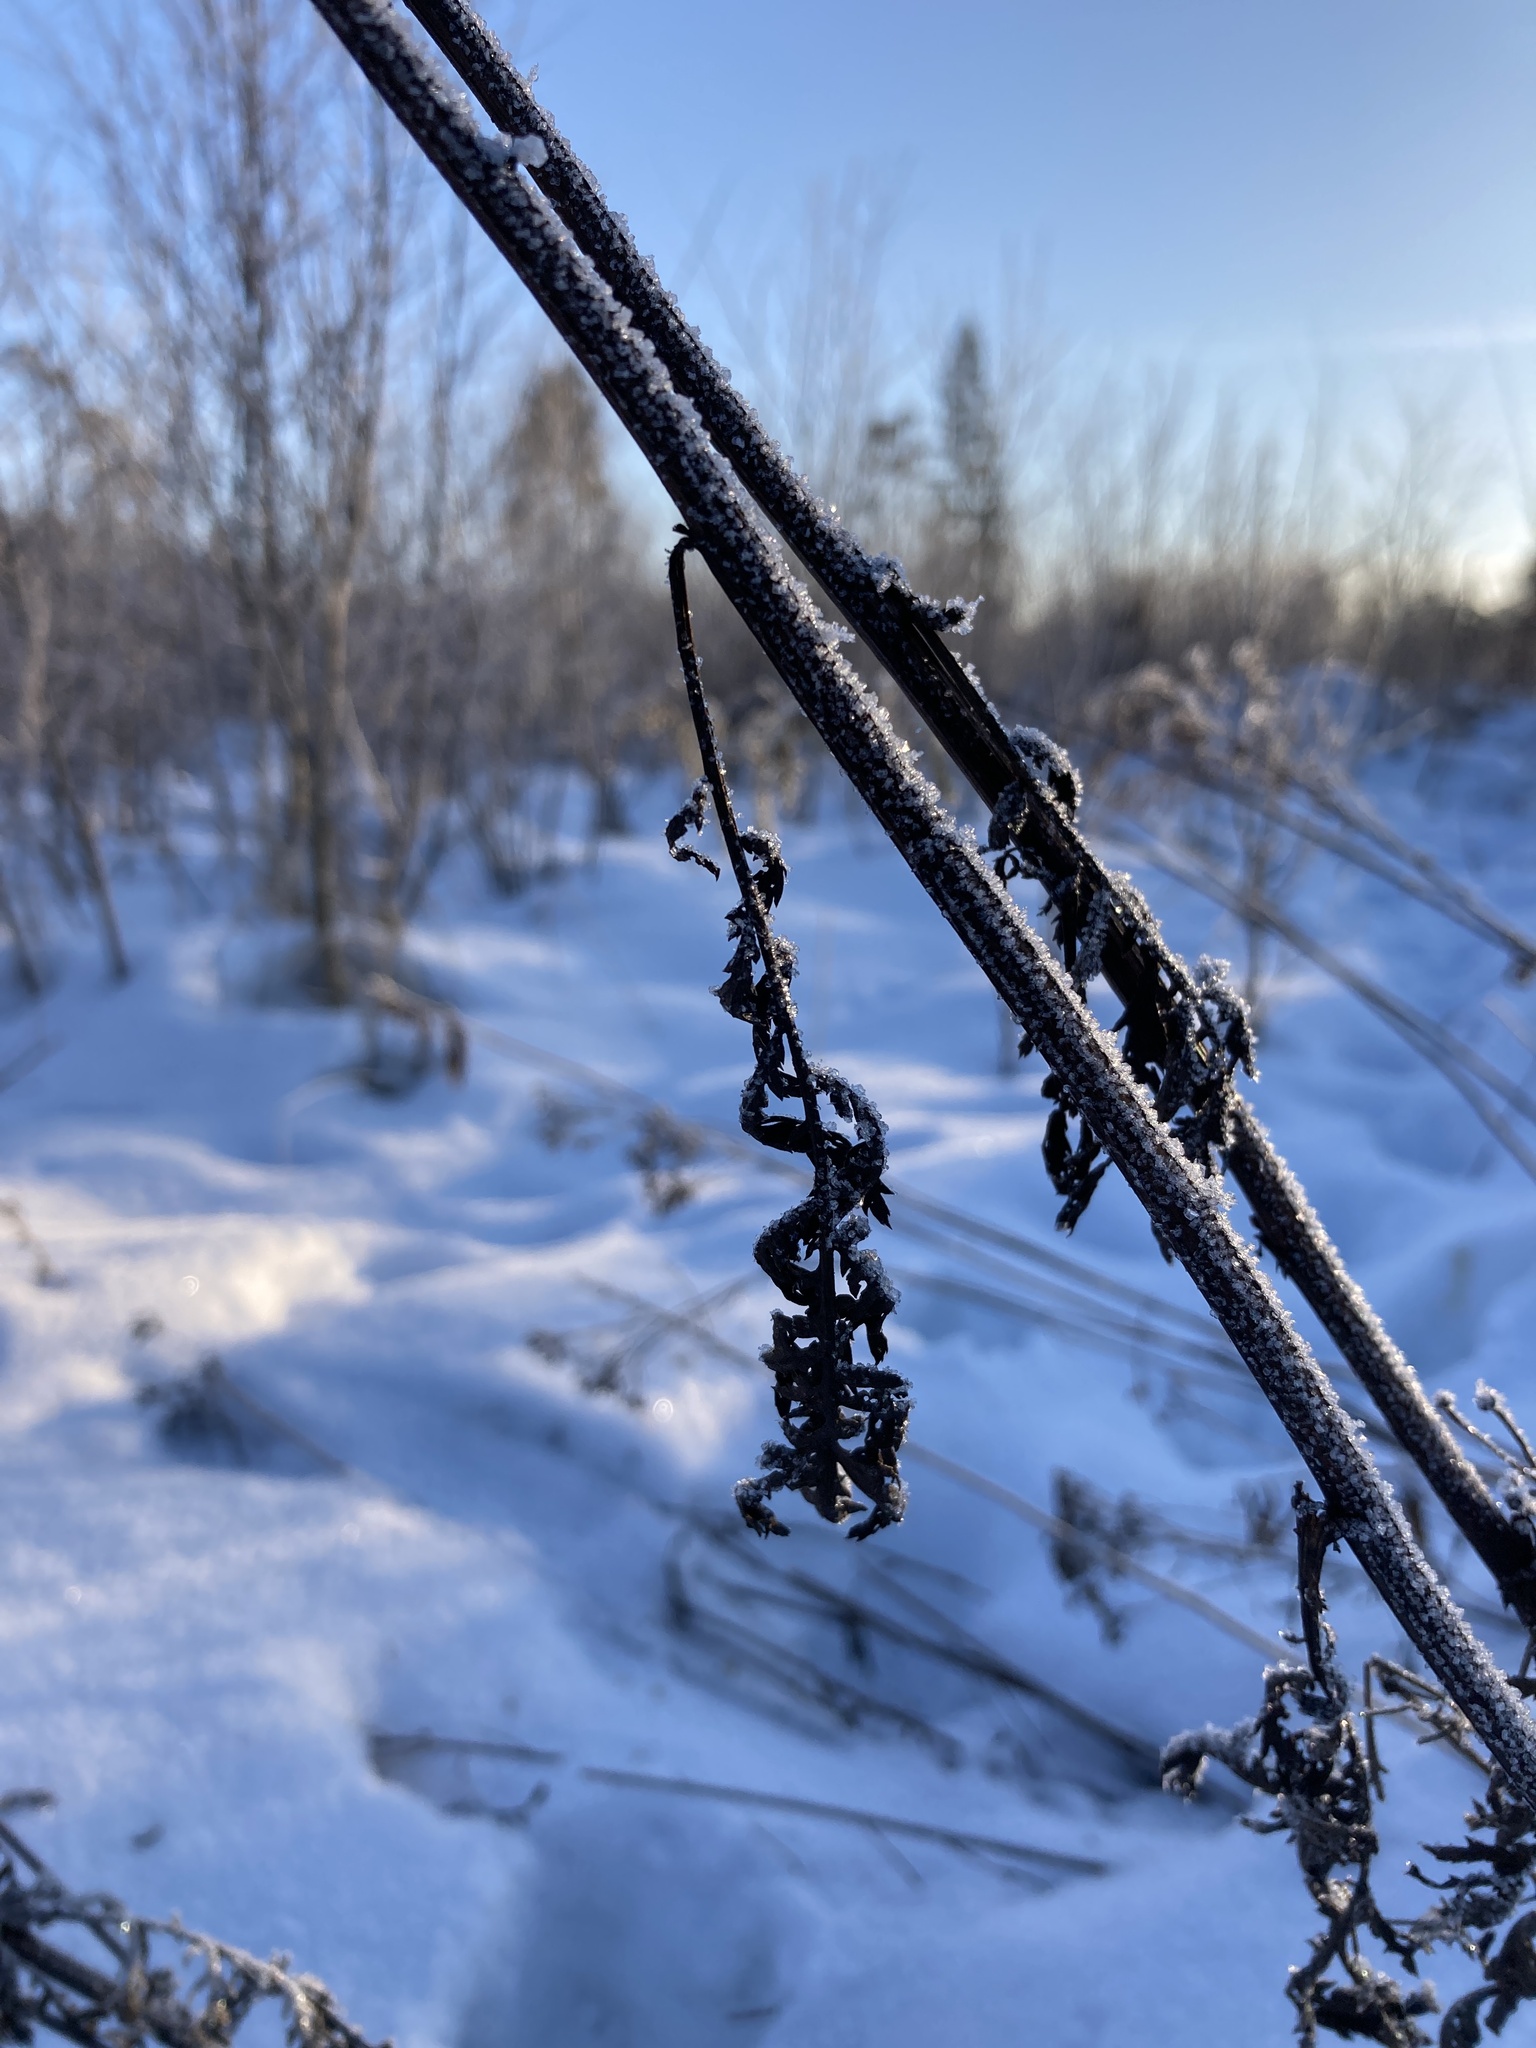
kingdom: Plantae
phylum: Tracheophyta
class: Magnoliopsida
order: Asterales
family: Asteraceae
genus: Tanacetum
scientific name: Tanacetum vulgare
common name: Common tansy
